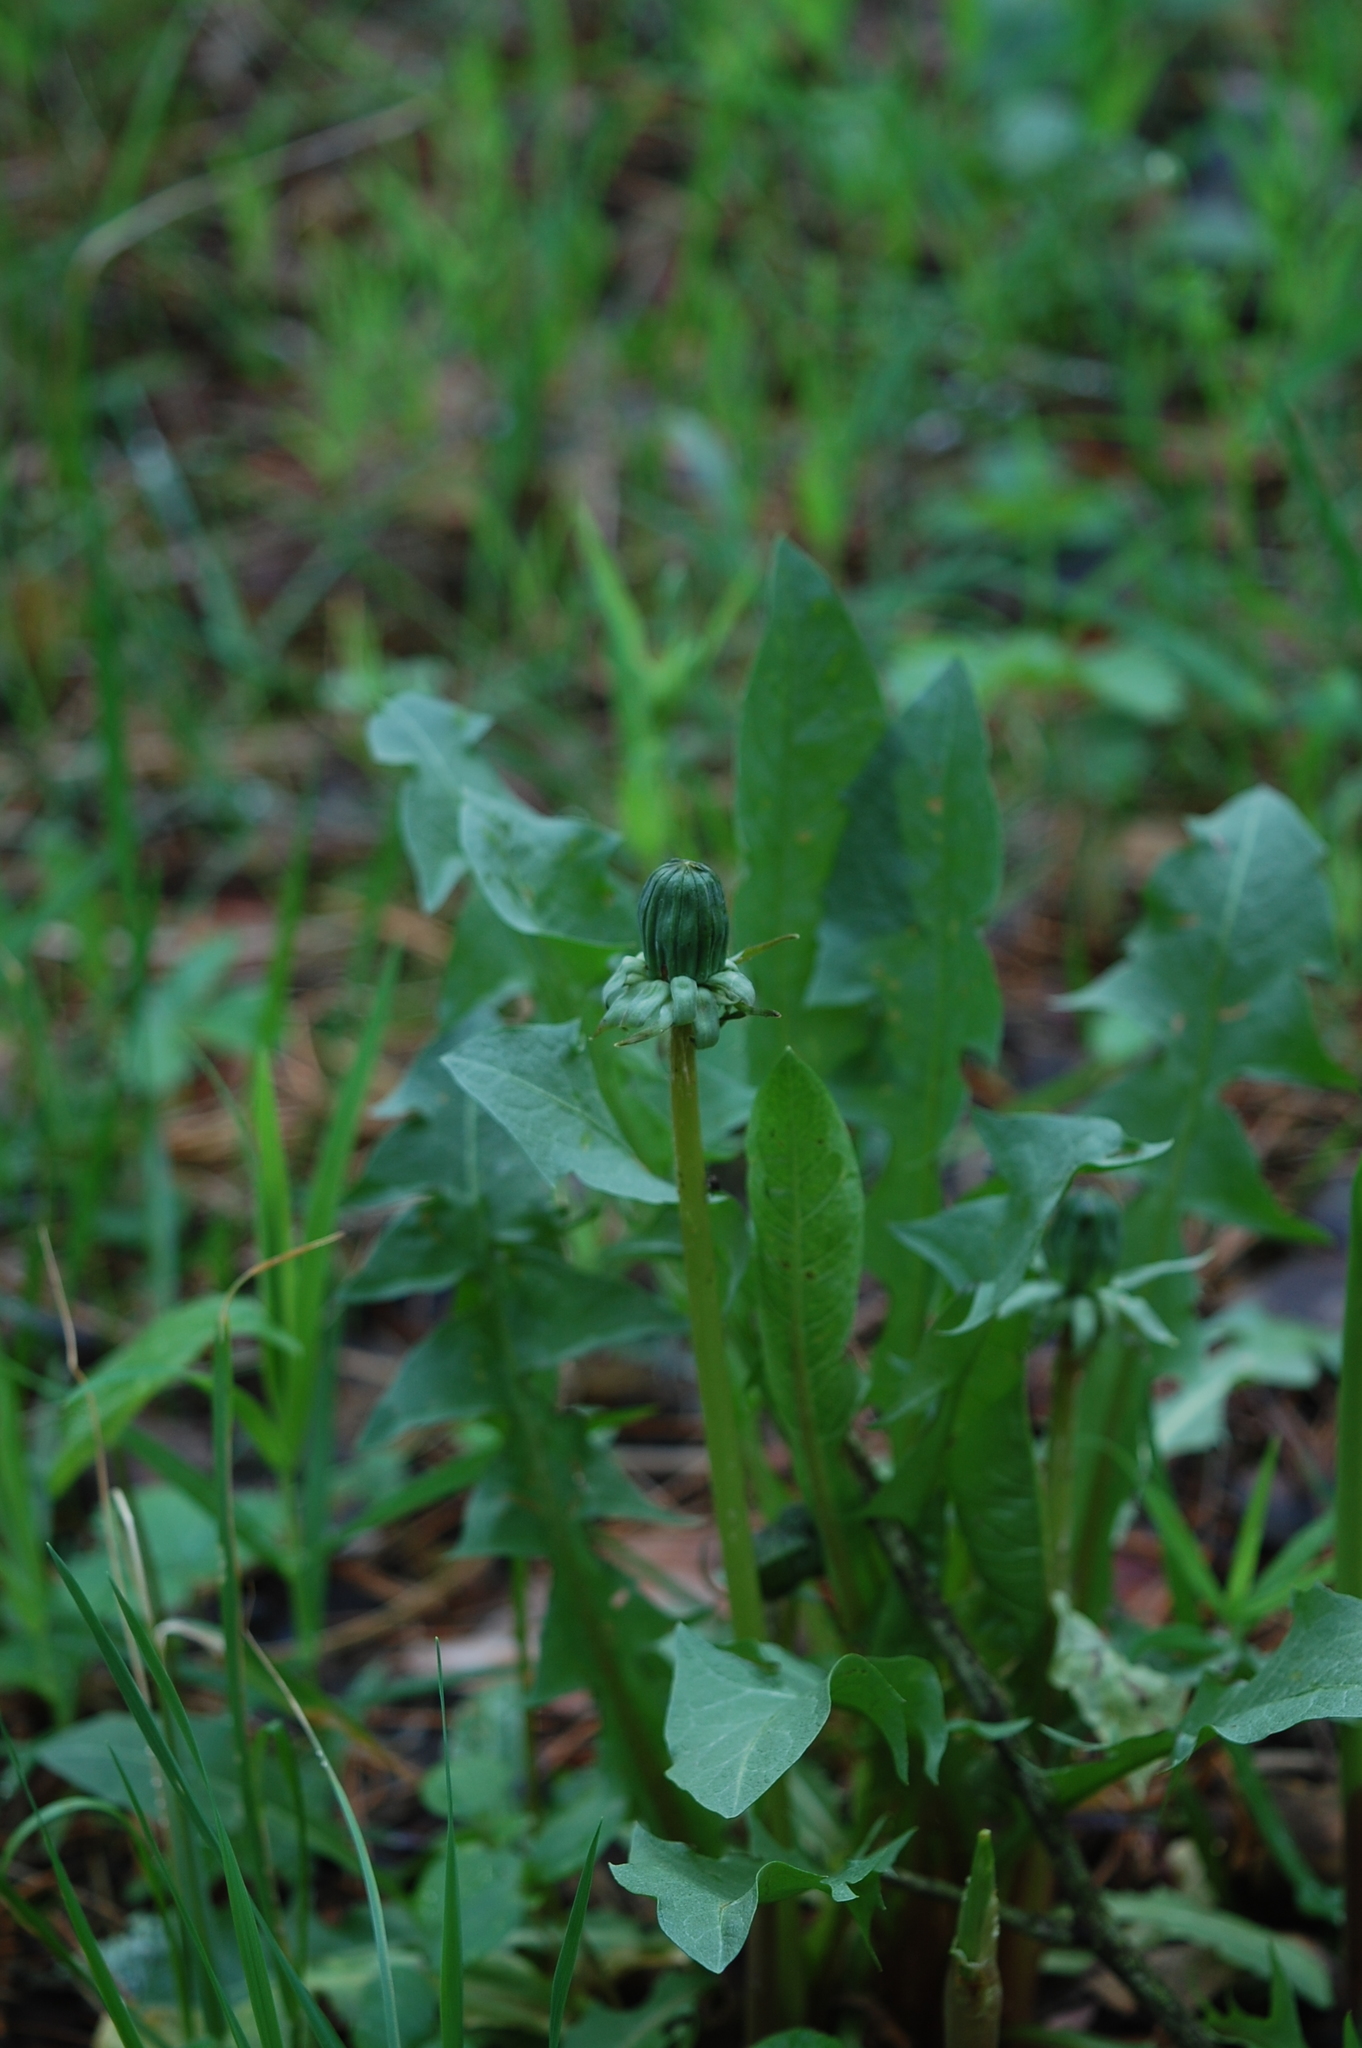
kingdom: Plantae
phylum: Tracheophyta
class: Magnoliopsida
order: Asterales
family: Asteraceae
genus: Taraxacum
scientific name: Taraxacum officinale
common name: Common dandelion
